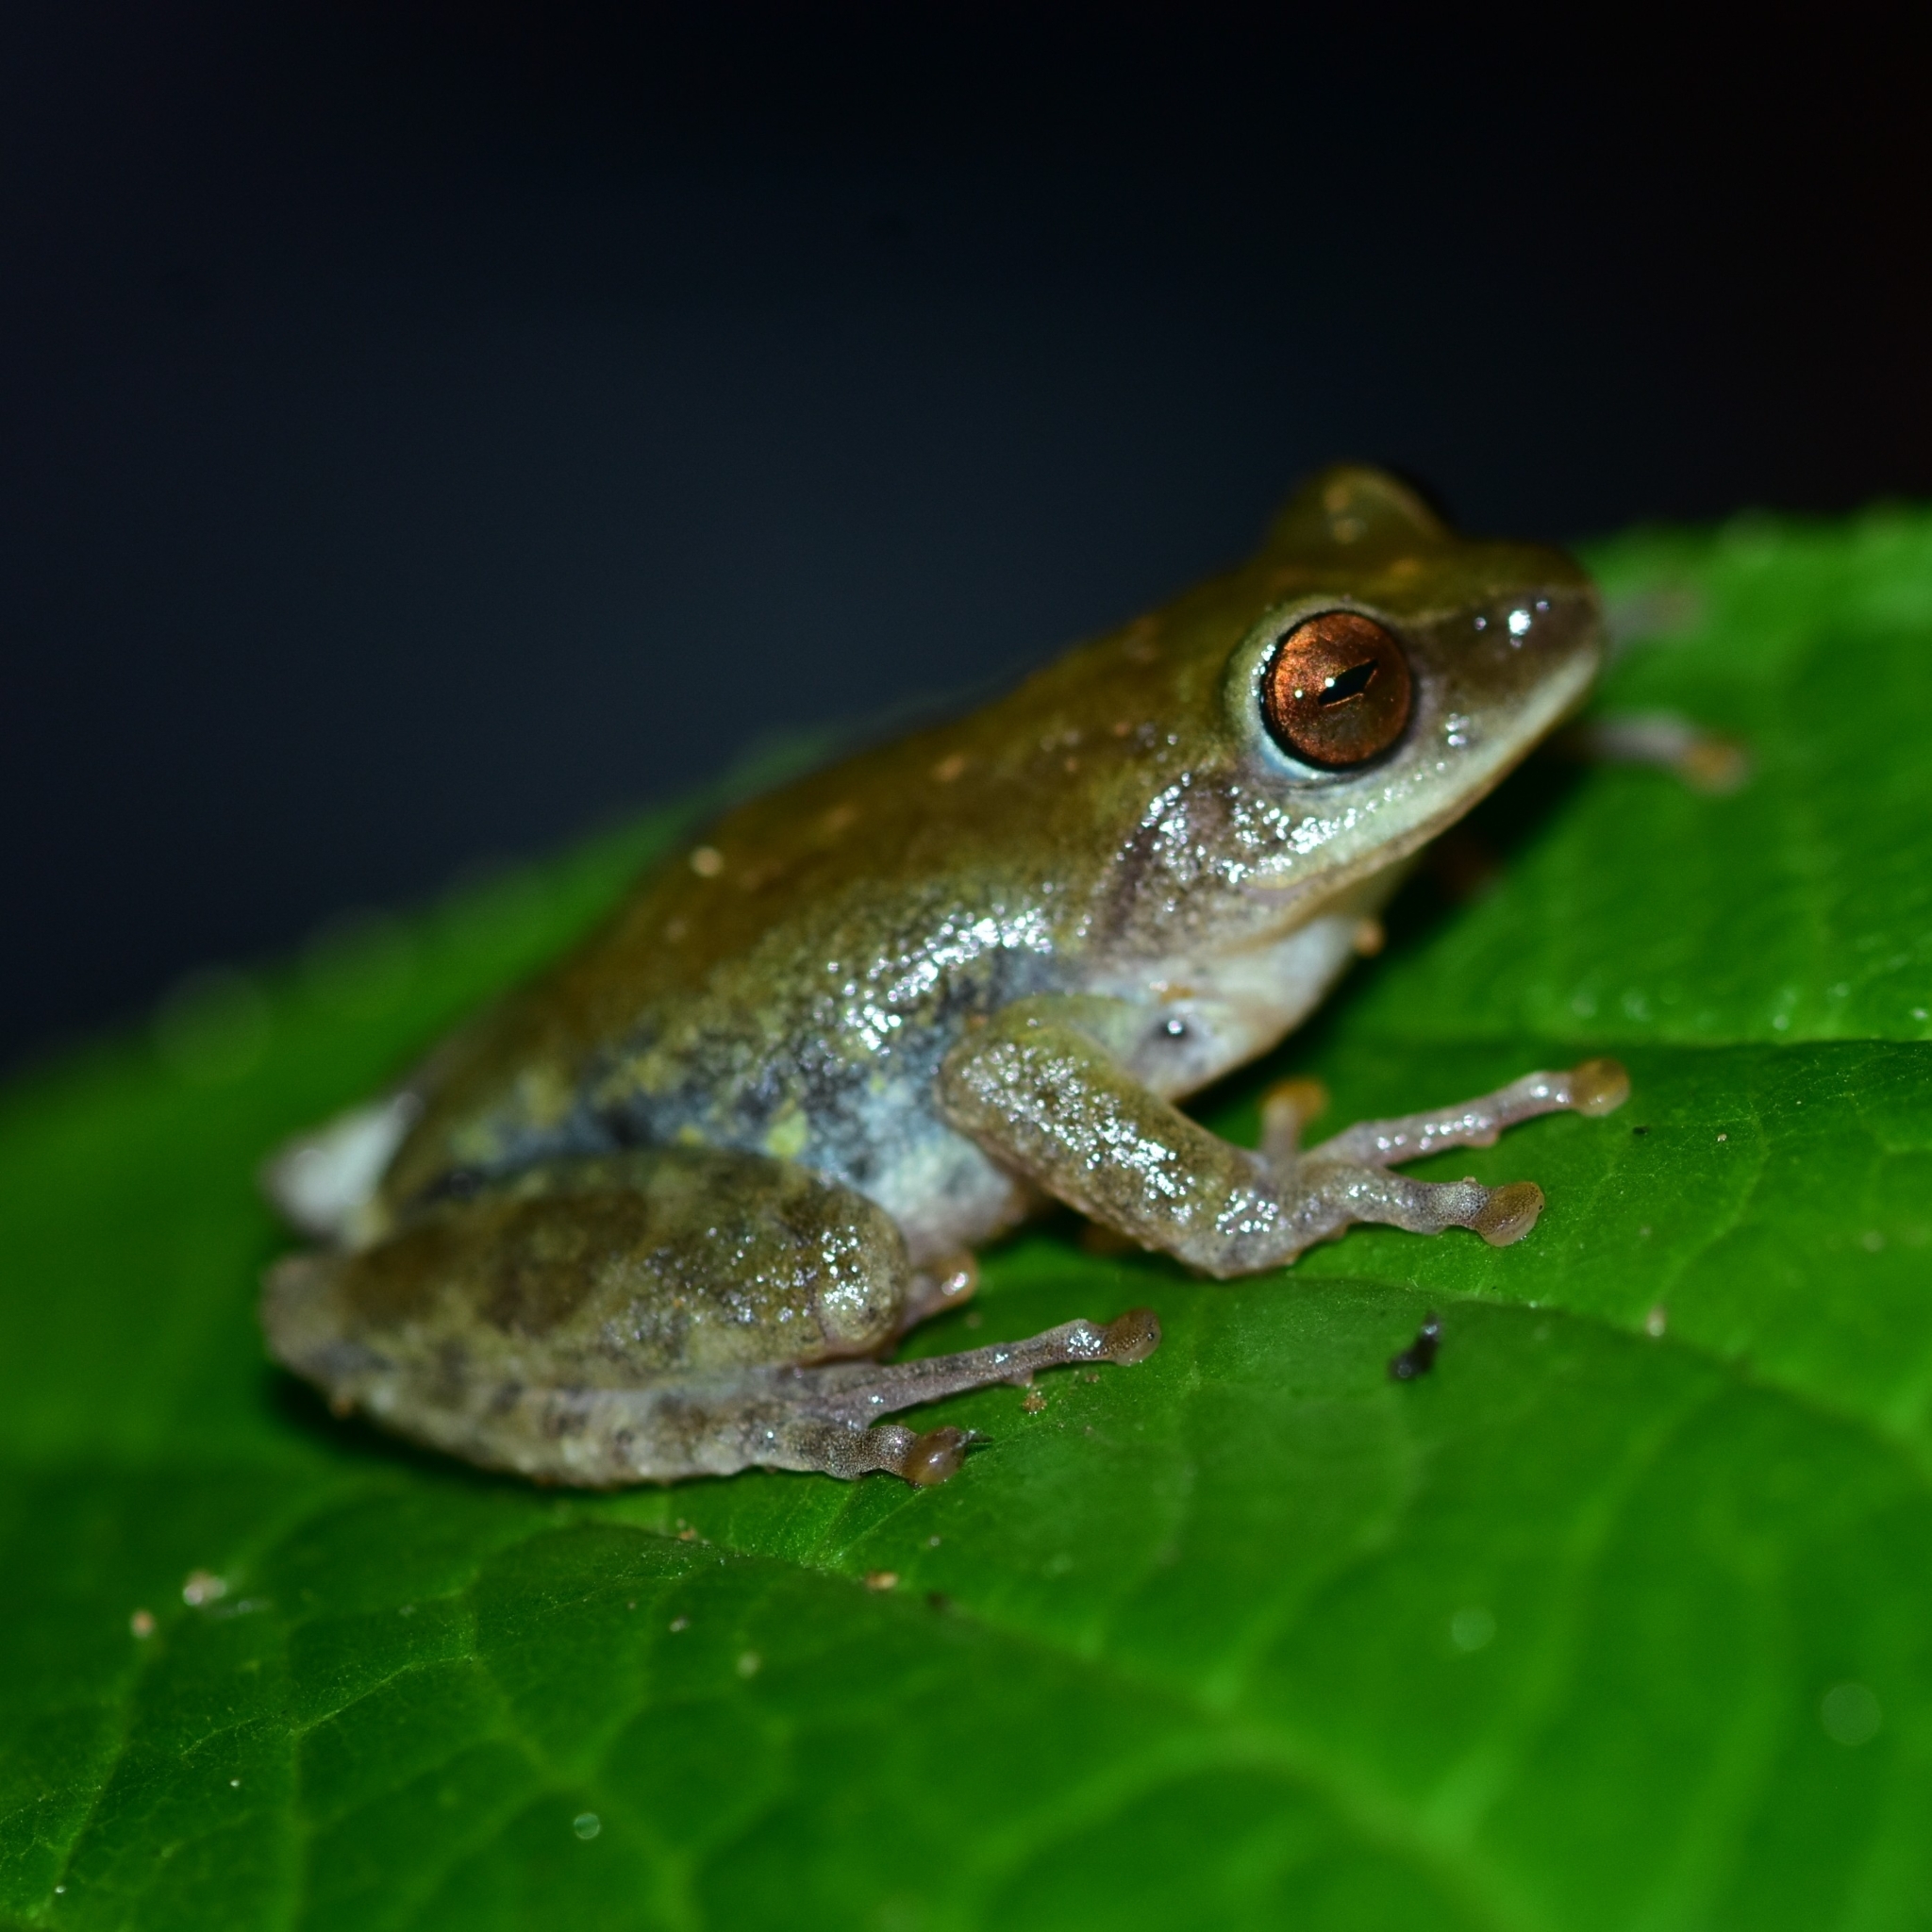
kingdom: Animalia
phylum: Chordata
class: Amphibia
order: Anura
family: Rhacophoridae
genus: Raorchestes
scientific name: Raorchestes beddomii
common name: Beddome's bush frog
